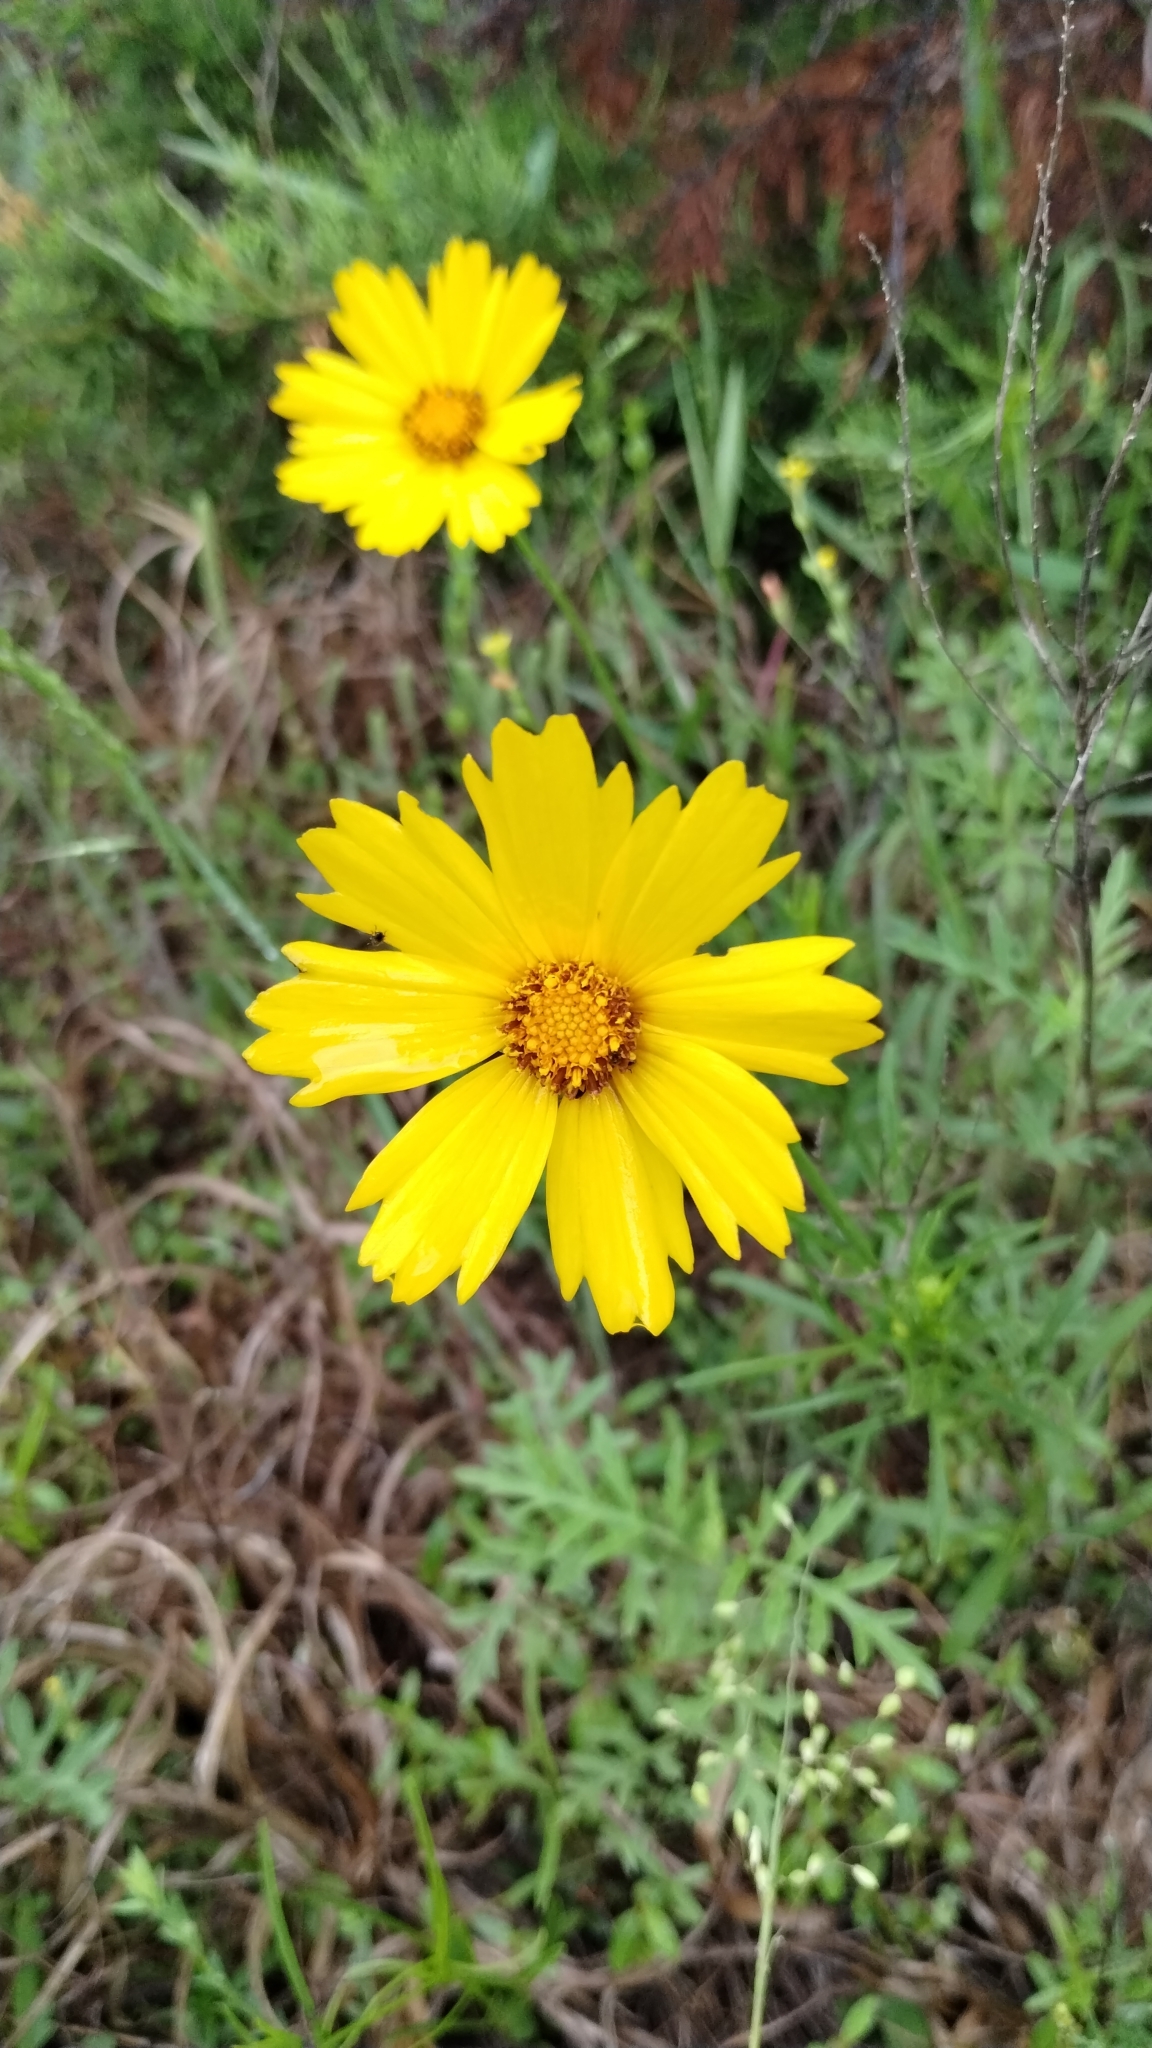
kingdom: Plantae
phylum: Tracheophyta
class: Magnoliopsida
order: Asterales
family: Asteraceae
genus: Coreopsis
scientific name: Coreopsis grandiflora
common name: Large-flowered tickseed
